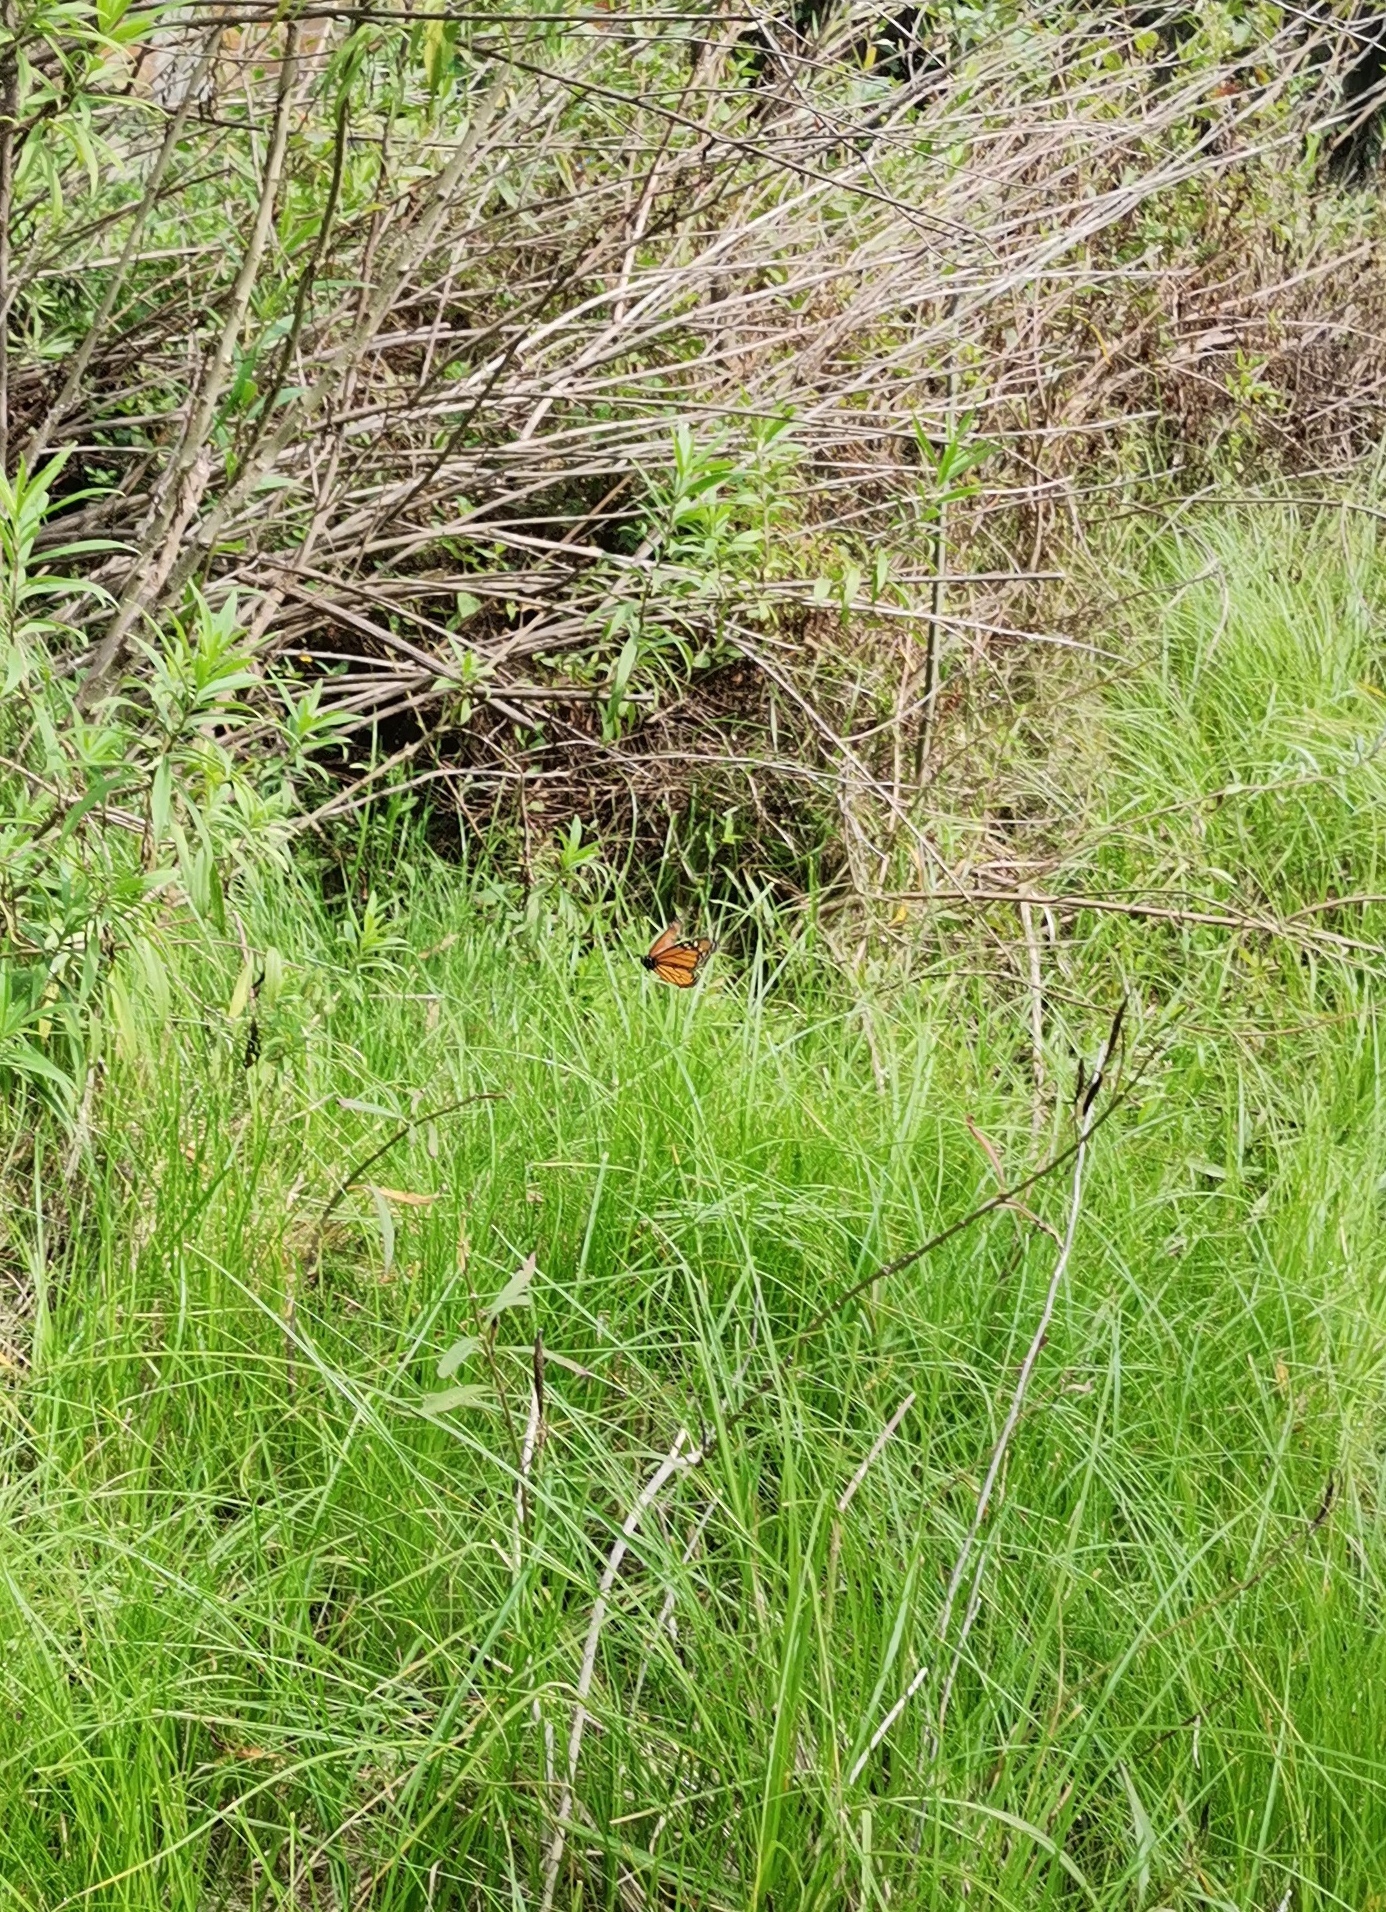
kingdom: Animalia
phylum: Arthropoda
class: Insecta
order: Lepidoptera
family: Nymphalidae
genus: Danaus
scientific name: Danaus plexippus
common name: Monarch
